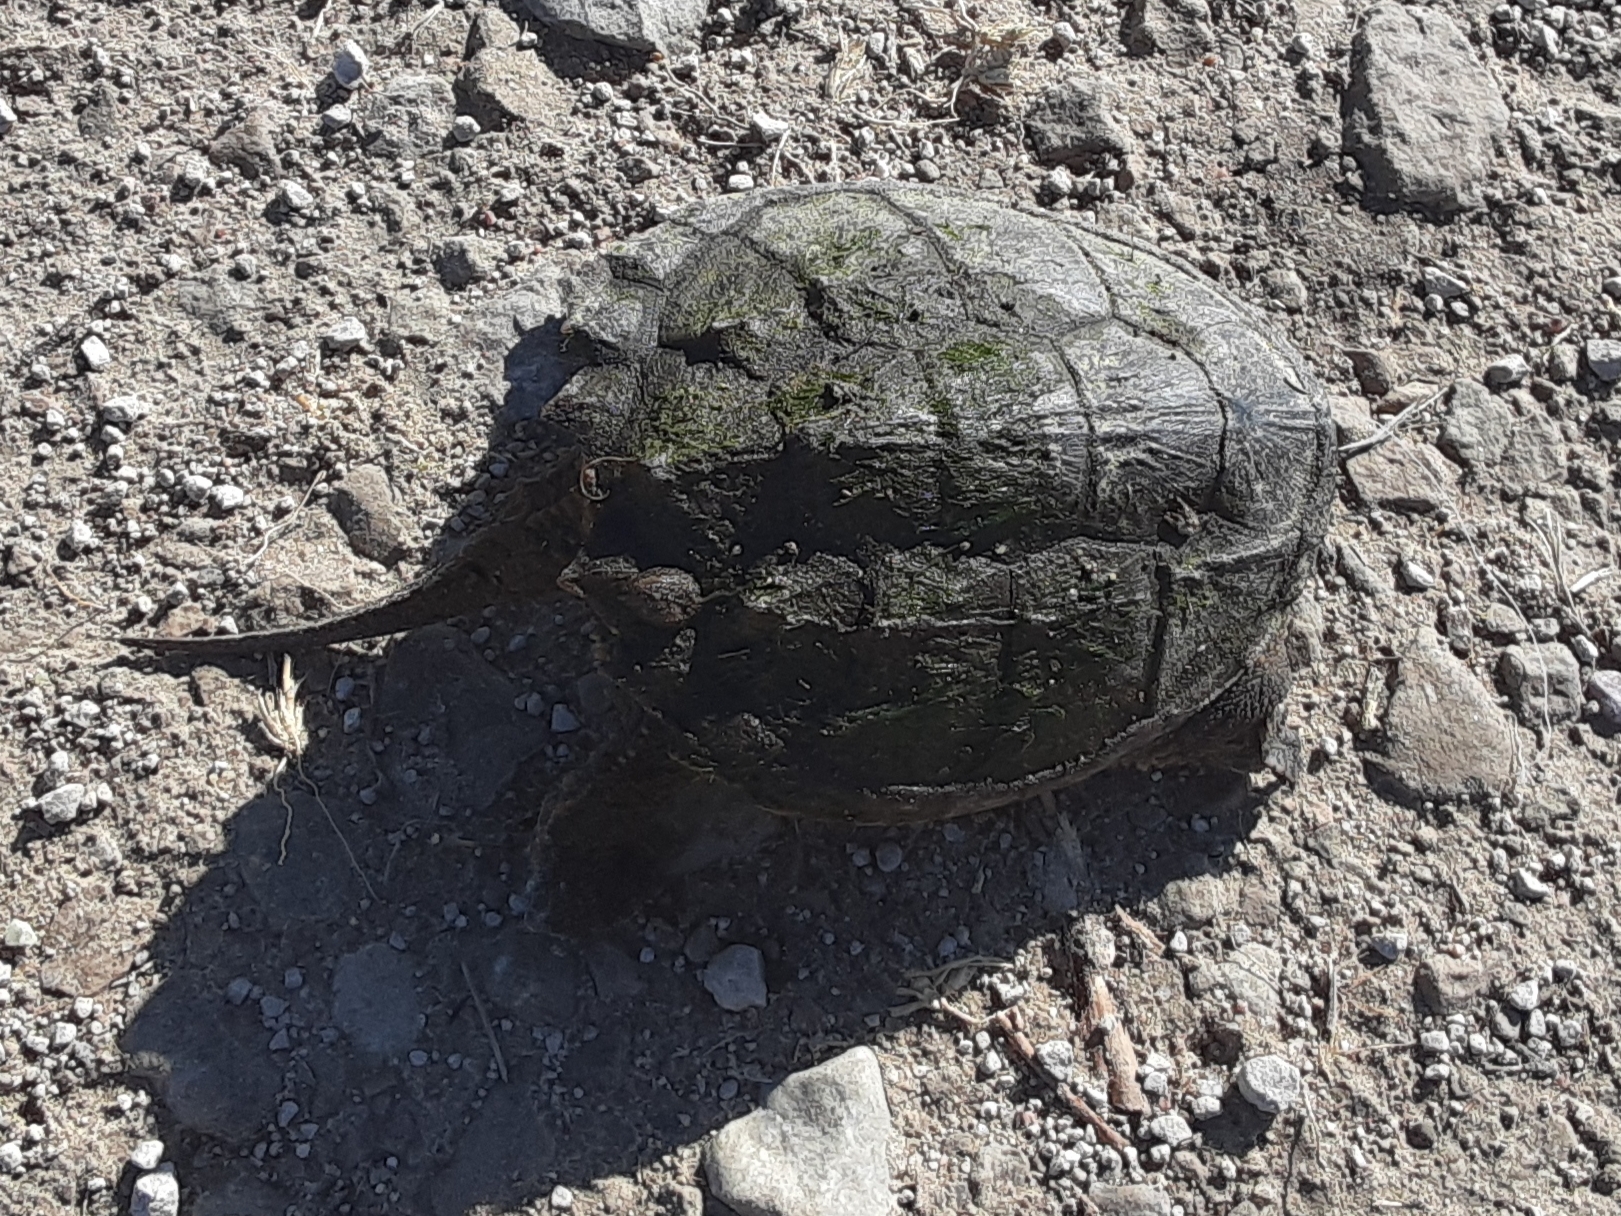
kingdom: Animalia
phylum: Chordata
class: Testudines
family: Chelydridae
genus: Chelydra
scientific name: Chelydra serpentina
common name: Common snapping turtle
